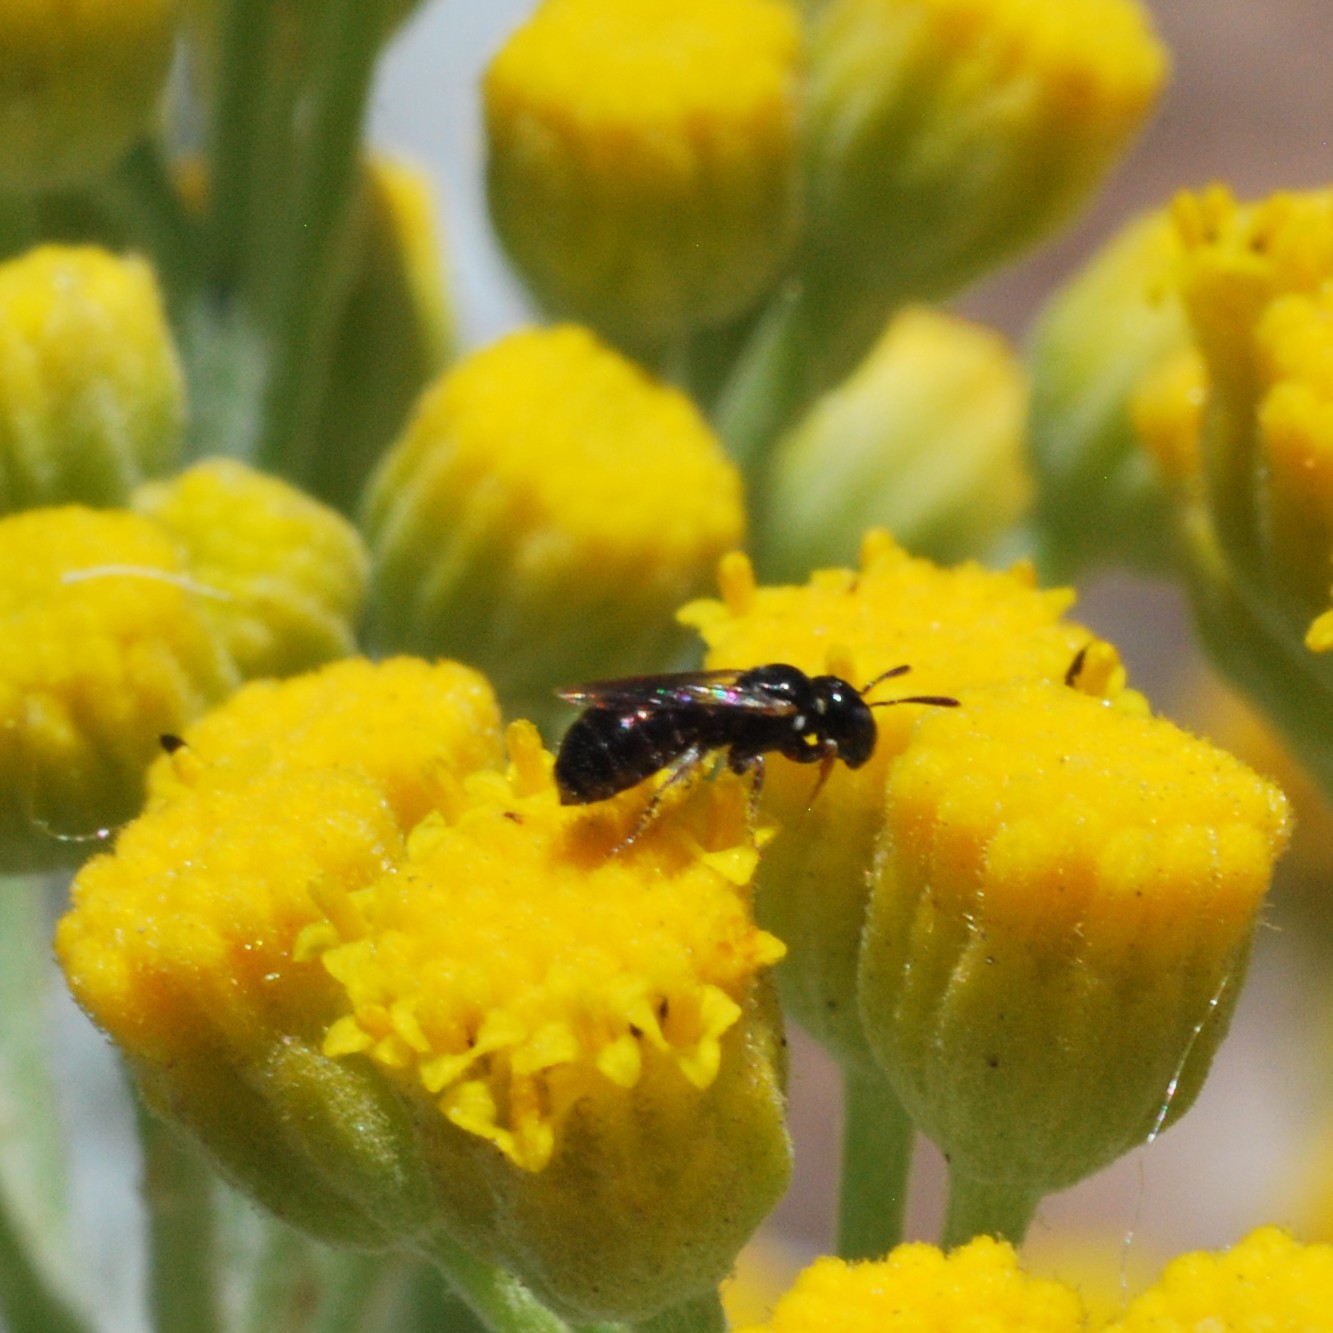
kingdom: Animalia
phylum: Arthropoda
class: Insecta
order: Hymenoptera
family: Apidae
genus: Ceratina
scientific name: Ceratina arizonensis
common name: Arizona small carpenter bee
